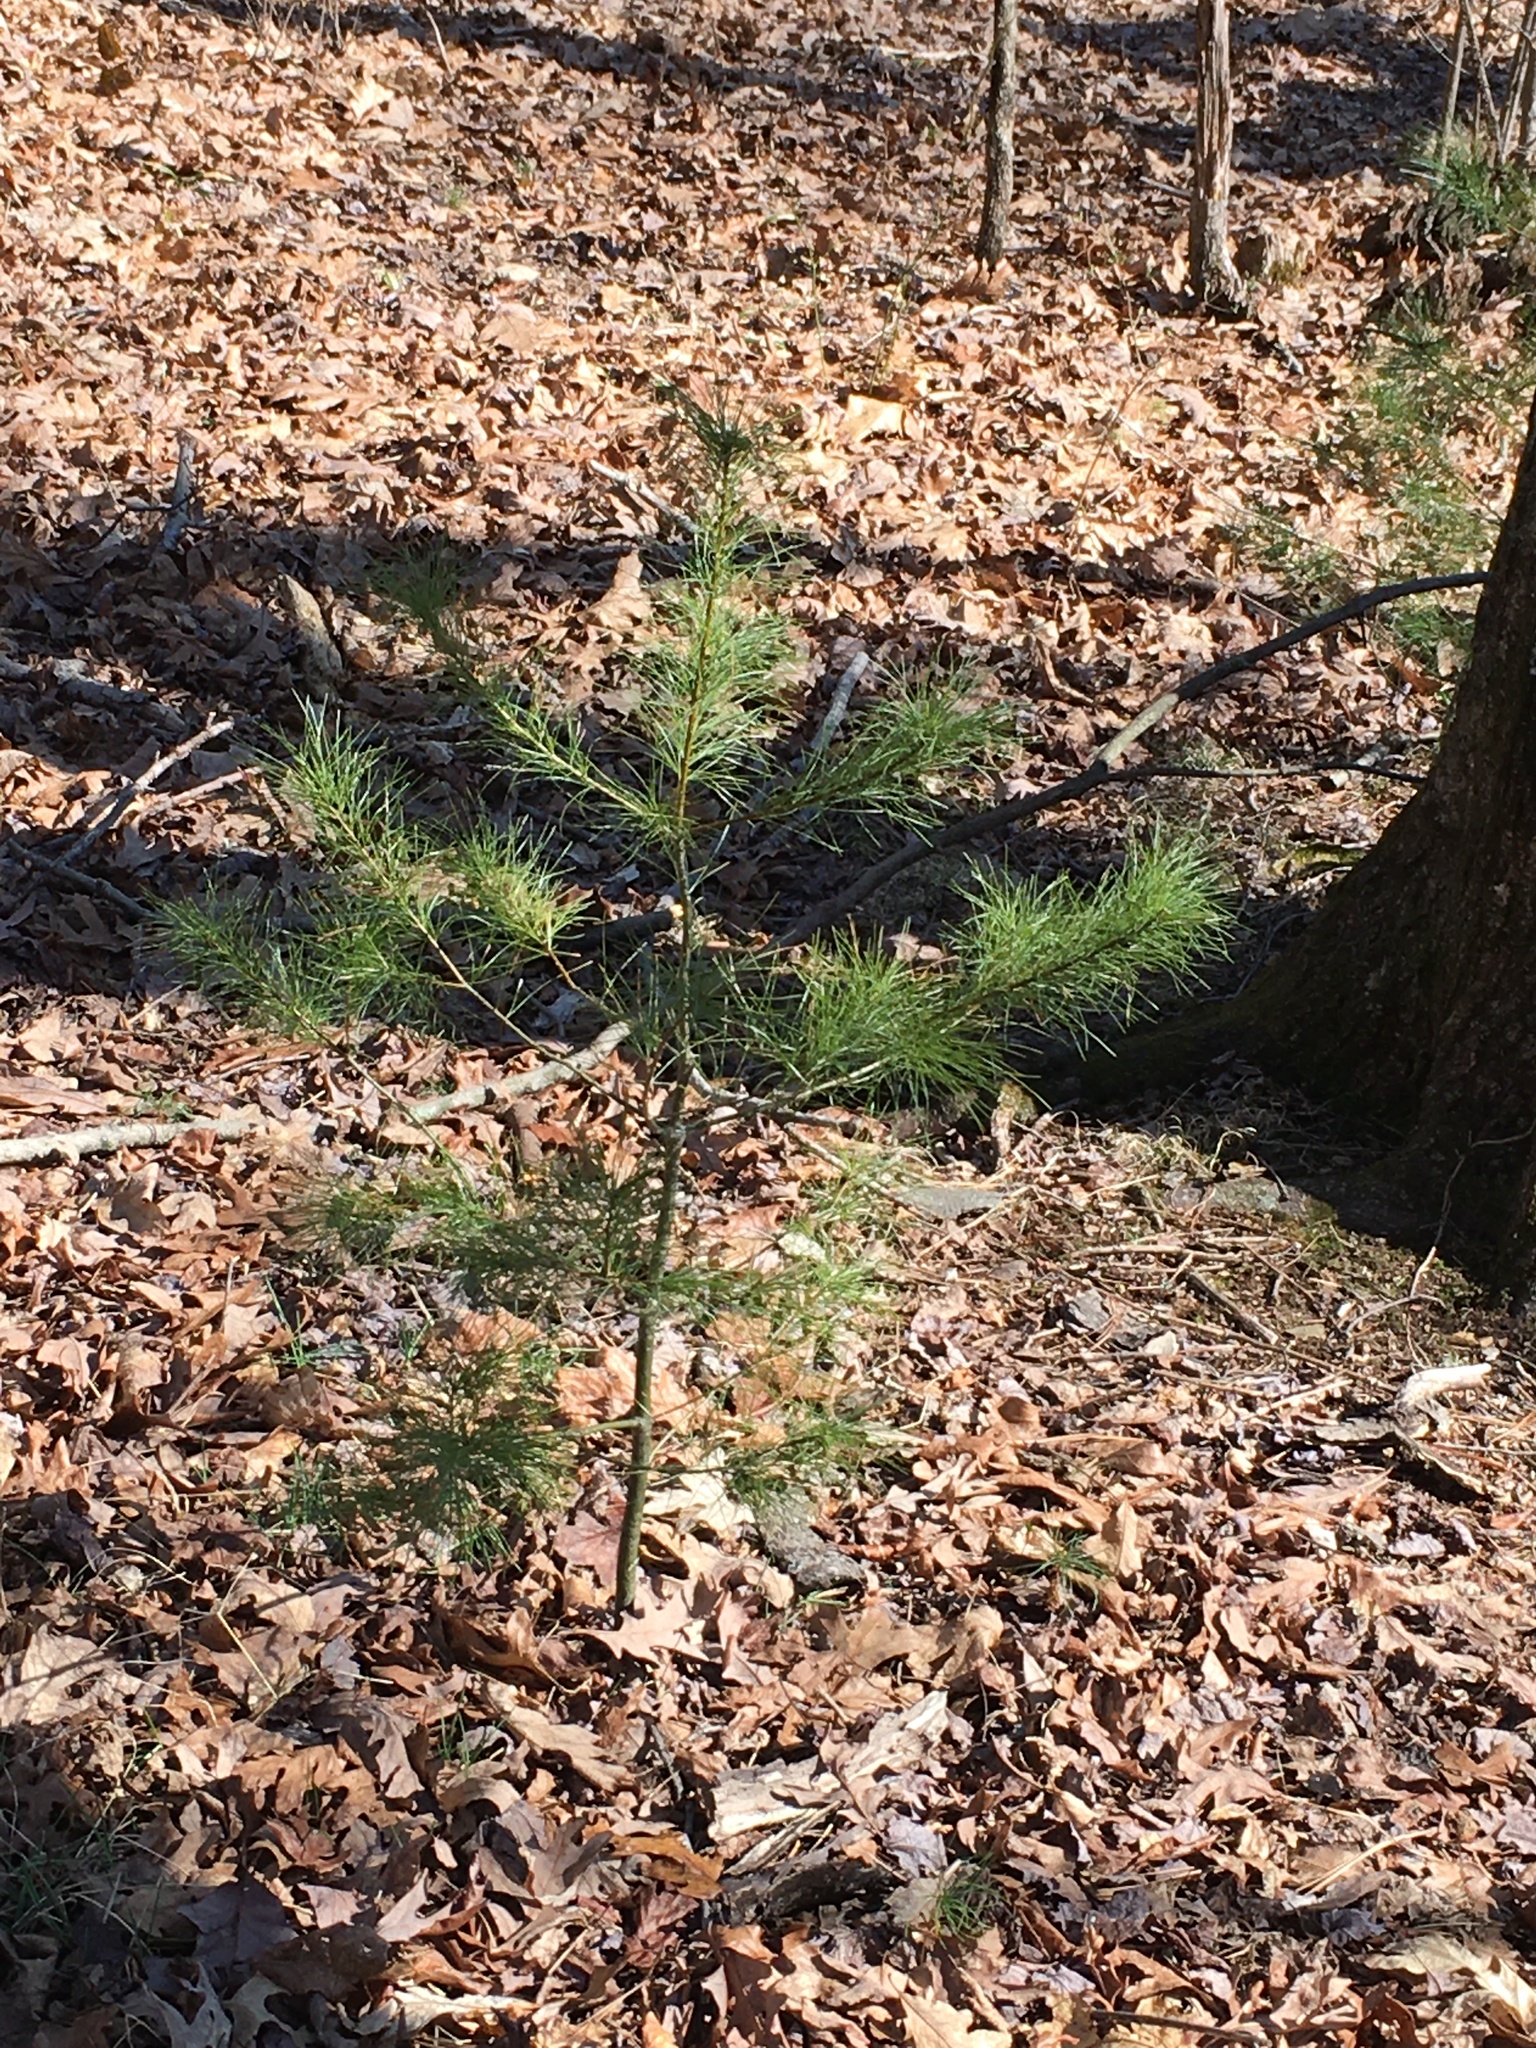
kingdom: Plantae
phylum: Tracheophyta
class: Pinopsida
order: Pinales
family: Pinaceae
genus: Pinus
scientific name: Pinus strobus
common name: Weymouth pine
